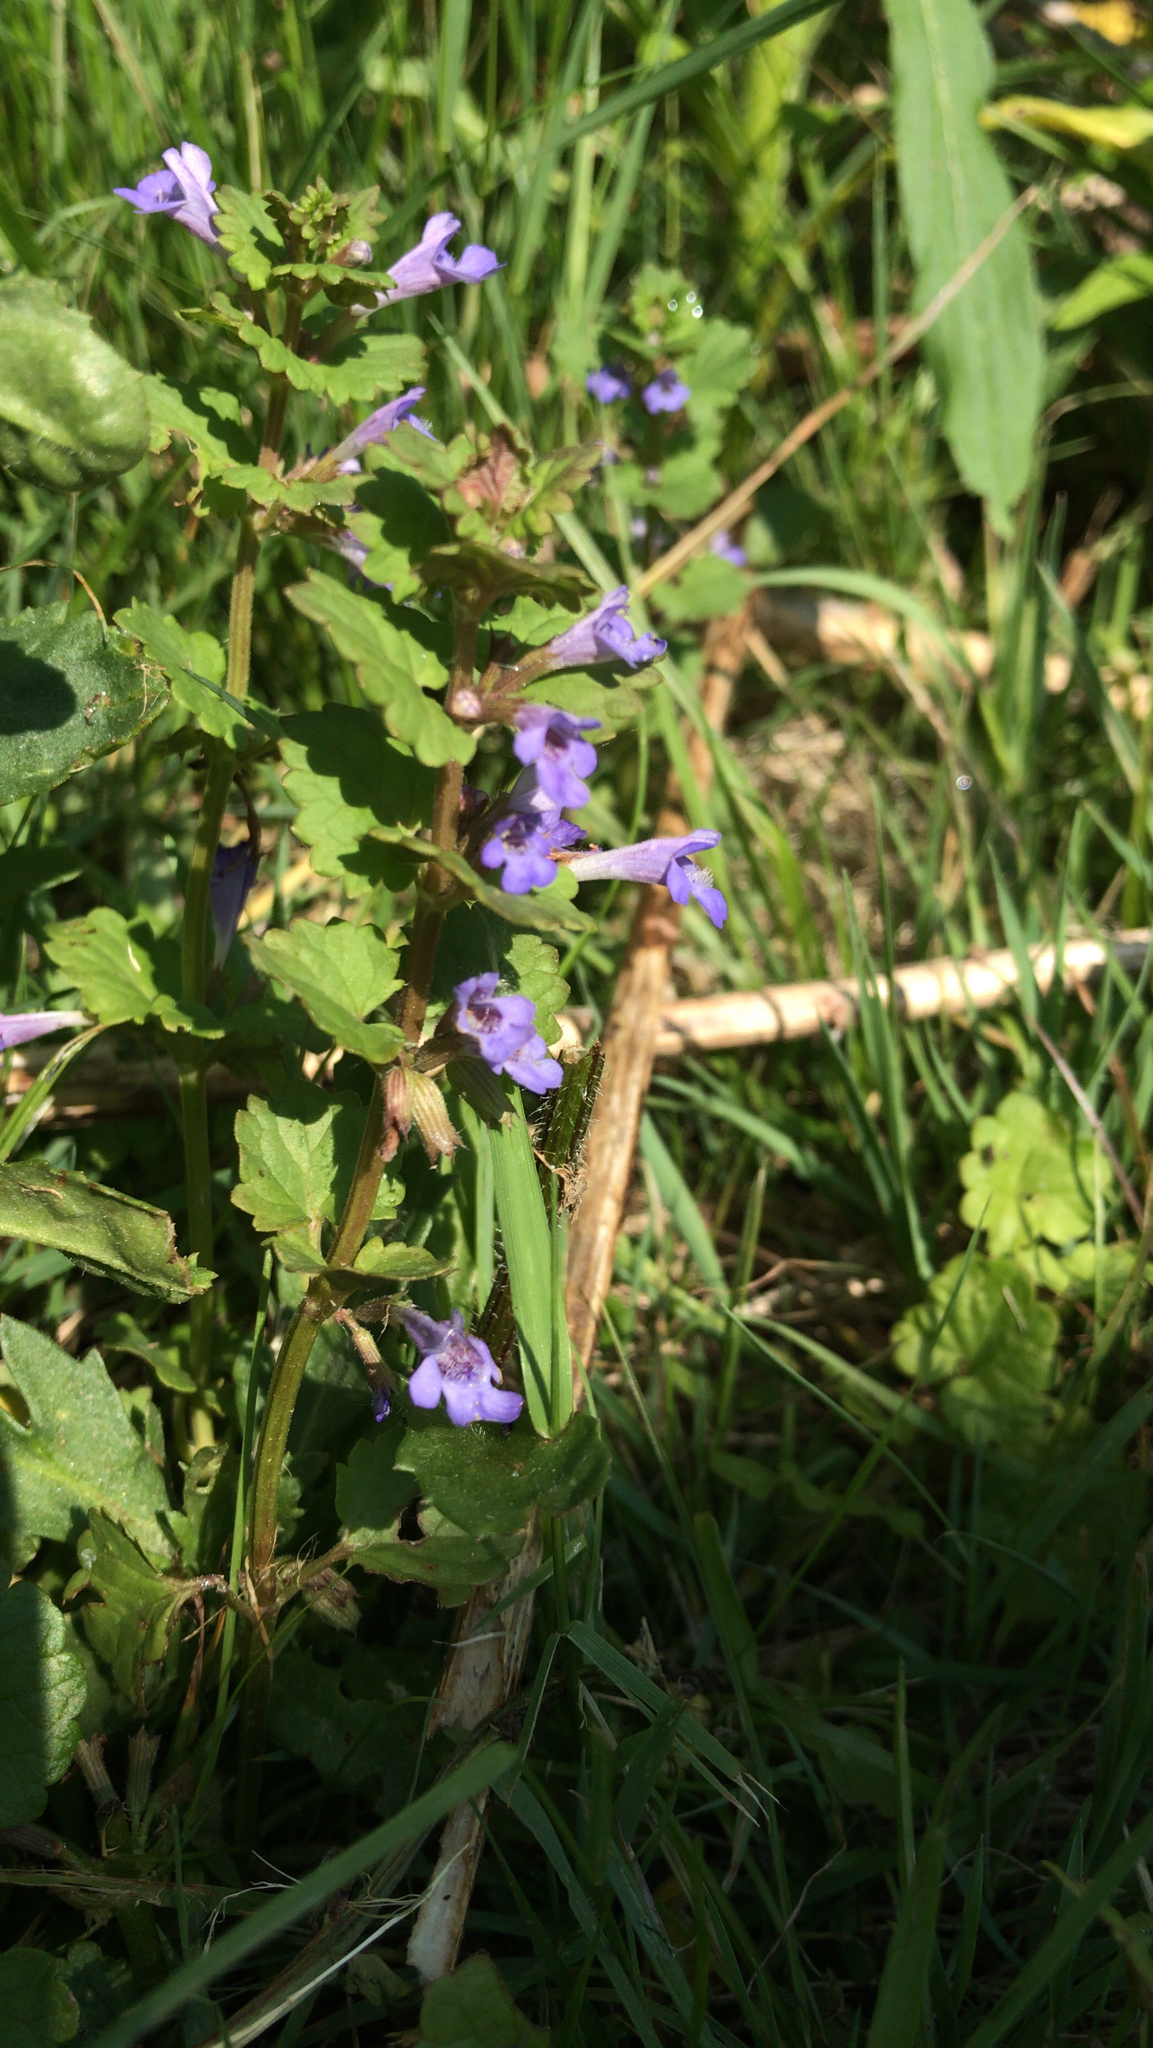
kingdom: Plantae
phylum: Tracheophyta
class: Magnoliopsida
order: Lamiales
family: Lamiaceae
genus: Glechoma
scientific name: Glechoma hederacea
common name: Ground ivy
